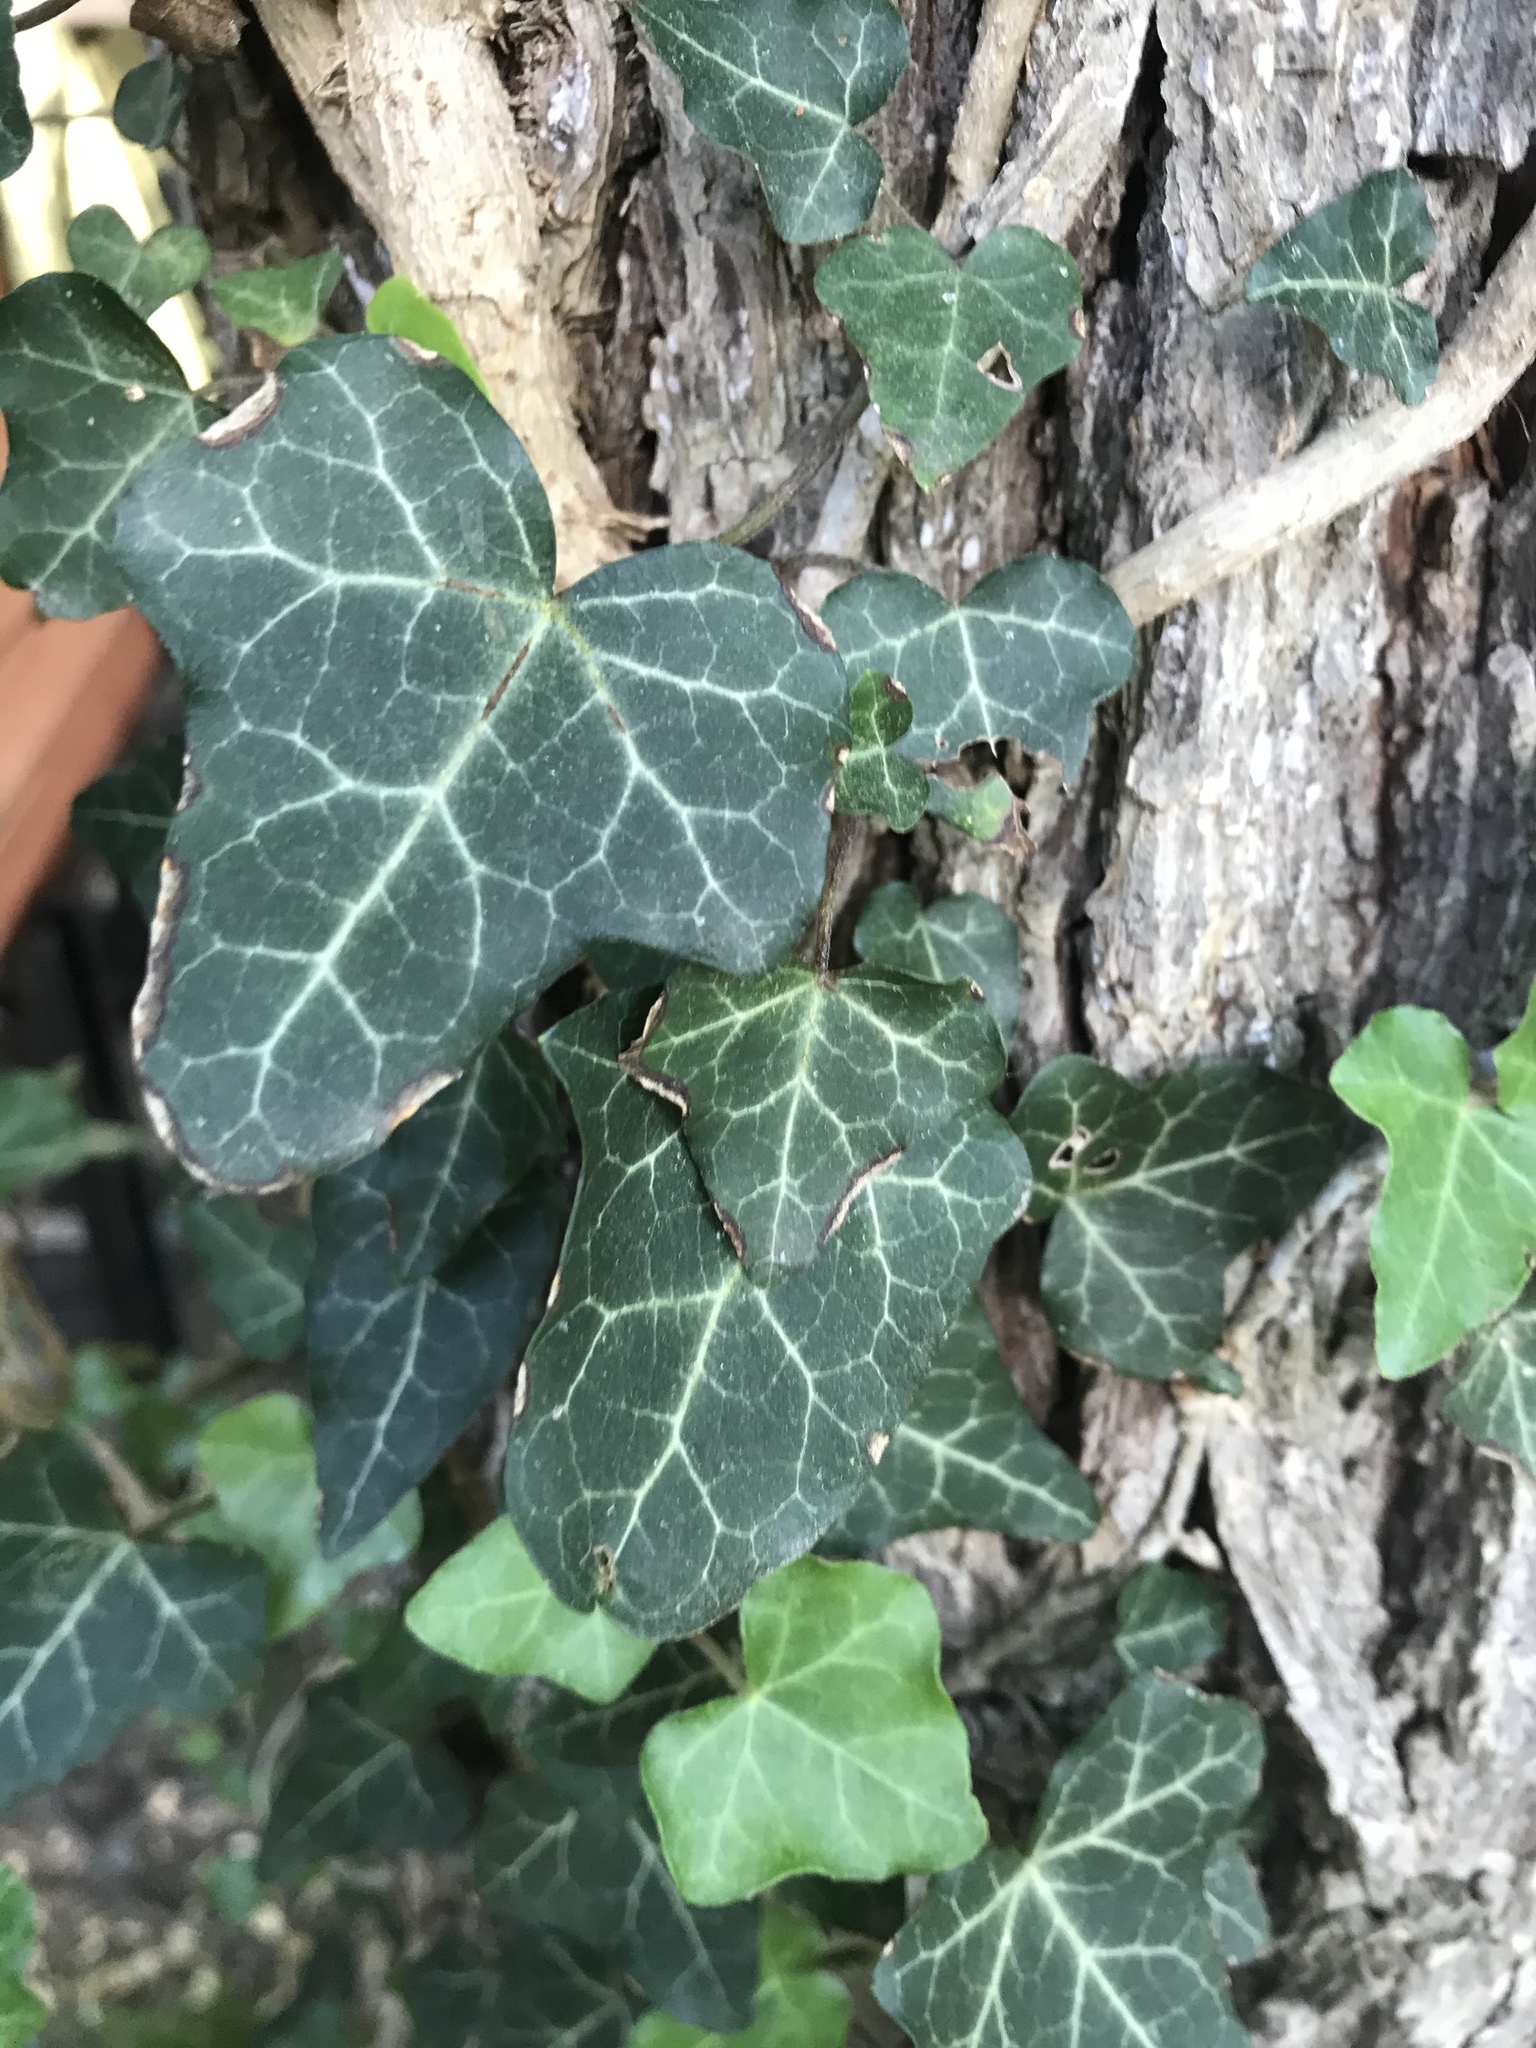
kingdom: Plantae
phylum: Tracheophyta
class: Magnoliopsida
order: Apiales
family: Araliaceae
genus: Hedera
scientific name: Hedera helix
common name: Ivy
